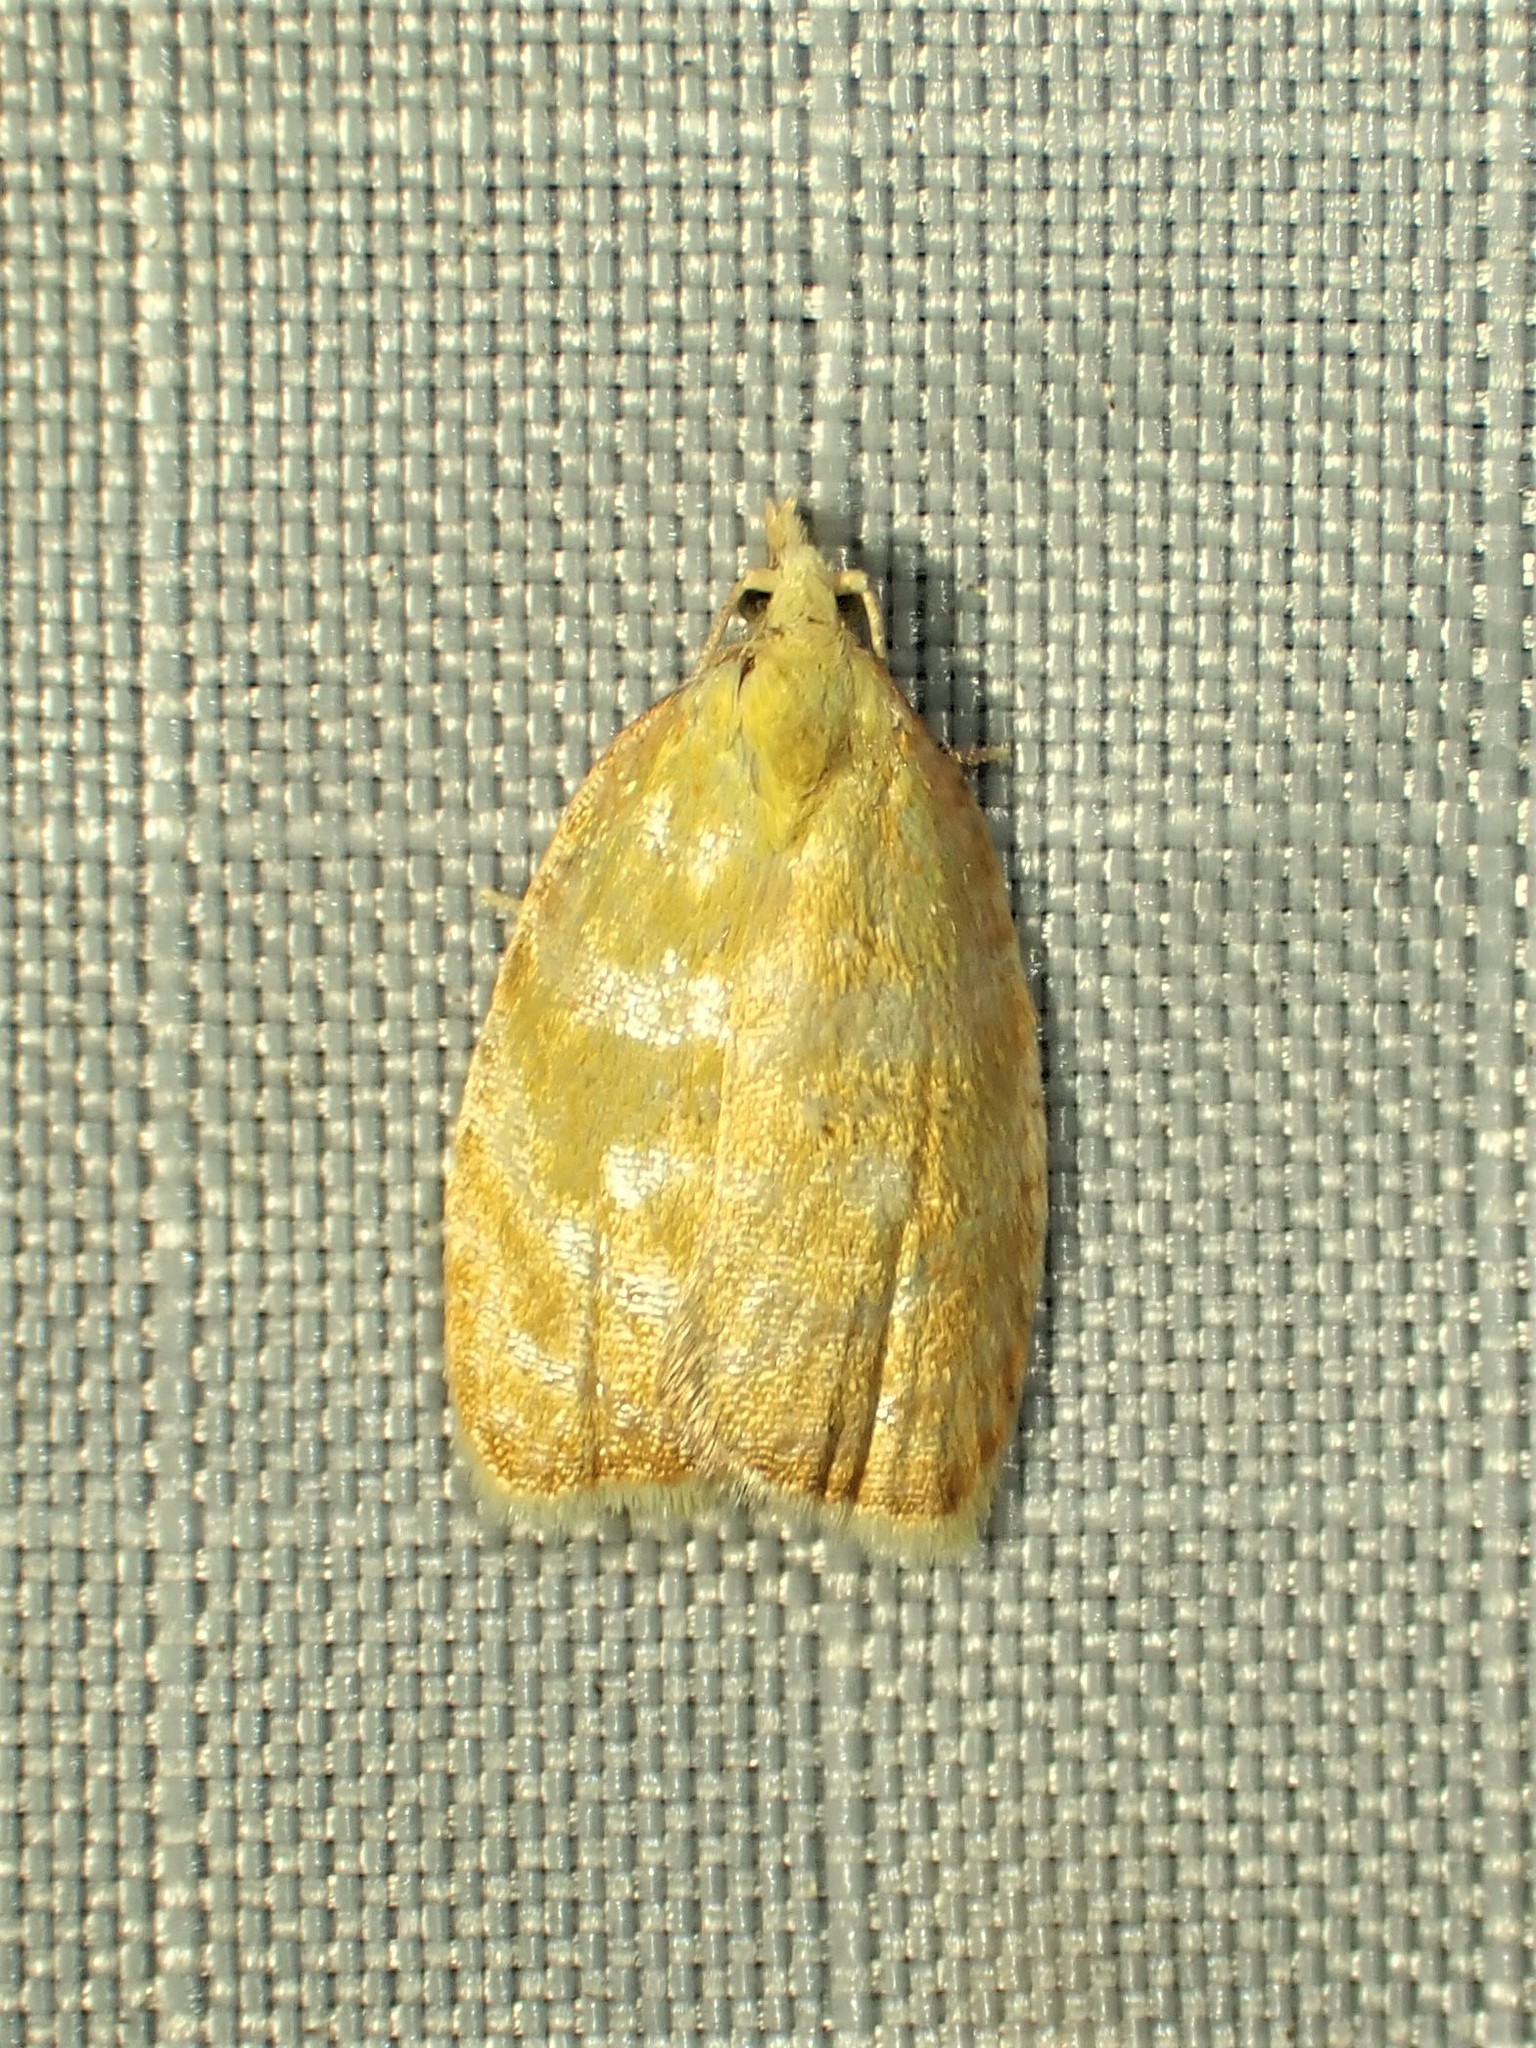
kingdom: Animalia
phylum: Arthropoda
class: Insecta
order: Lepidoptera
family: Tortricidae
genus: Acleris
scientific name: Acleris curvalana
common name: Blueberry leaftier moth
